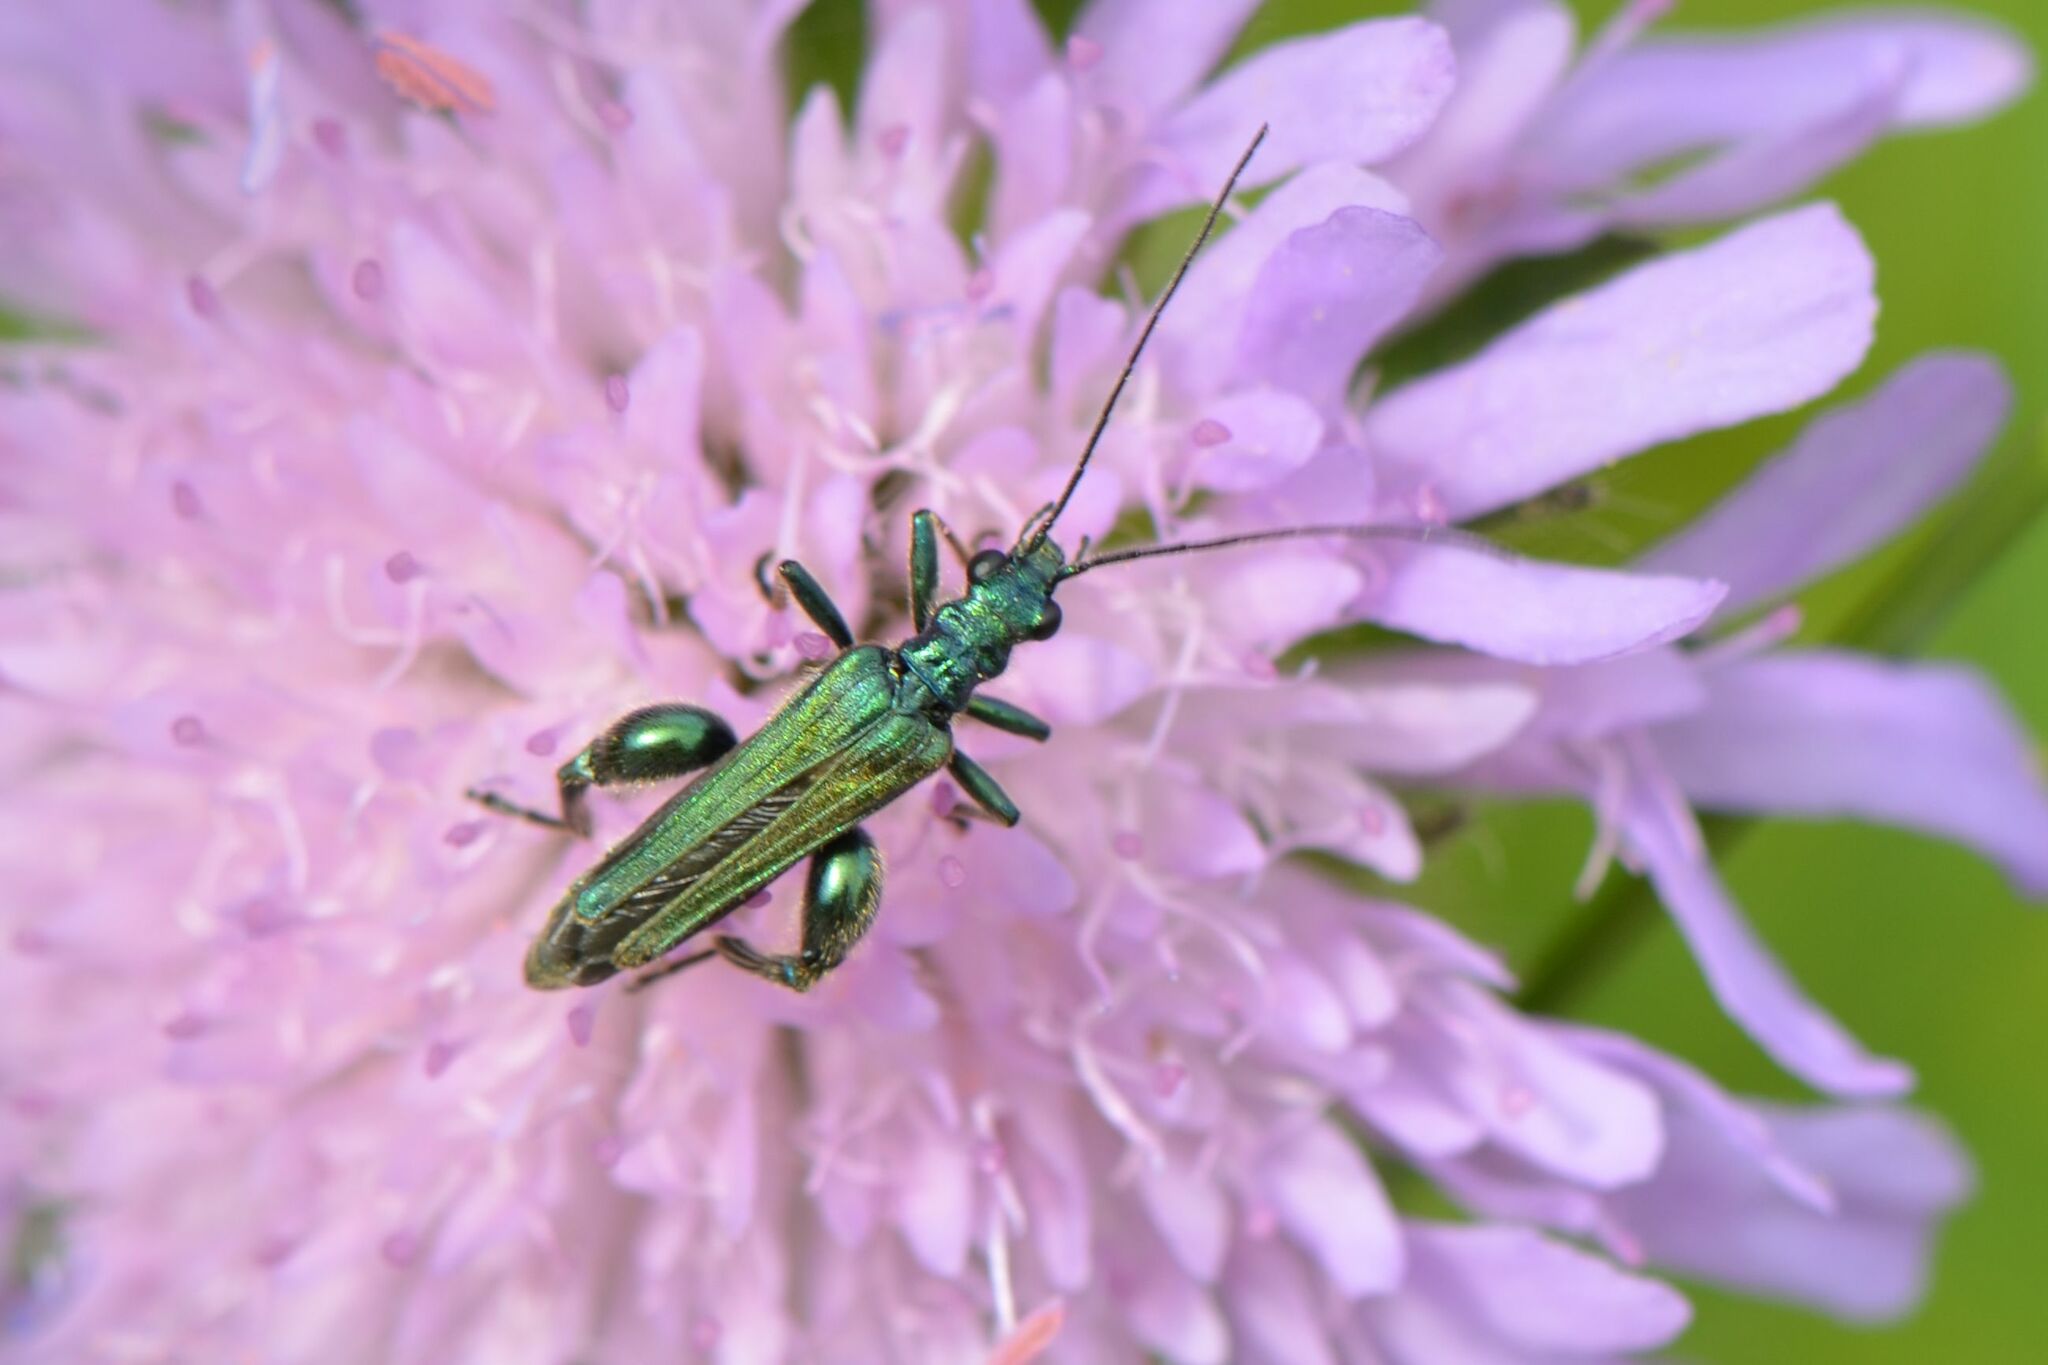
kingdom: Animalia
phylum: Arthropoda
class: Insecta
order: Coleoptera
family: Oedemeridae
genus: Oedemera
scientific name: Oedemera nobilis
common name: Swollen-thighed beetle
